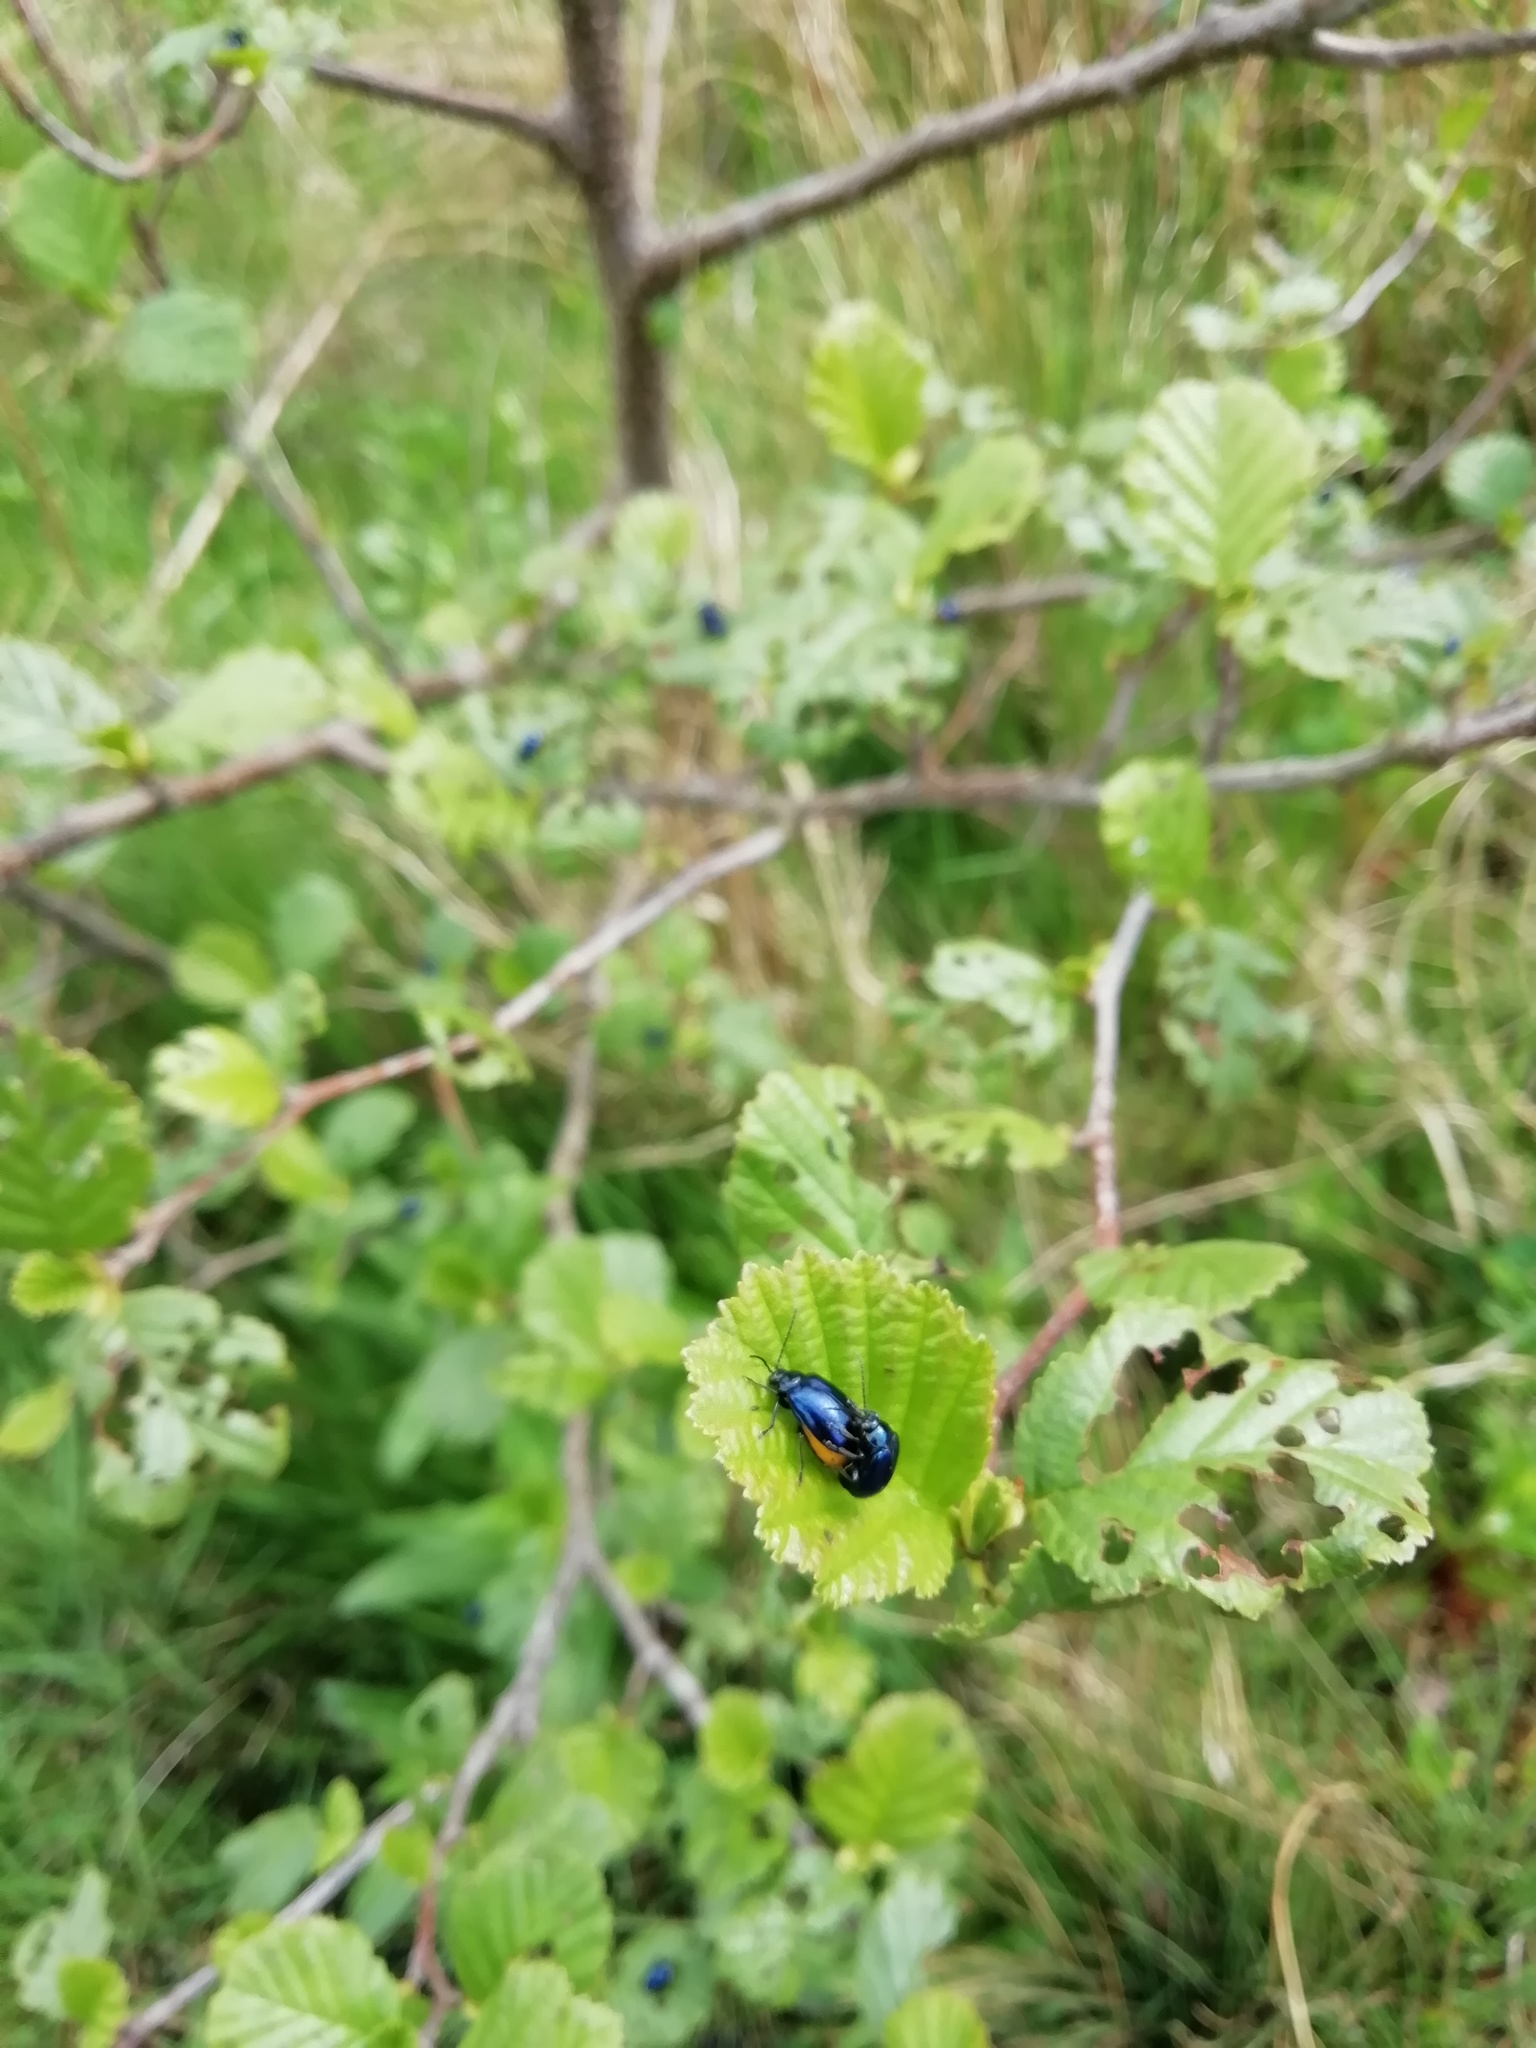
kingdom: Animalia
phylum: Arthropoda
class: Insecta
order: Coleoptera
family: Chrysomelidae
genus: Agelastica
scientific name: Agelastica alni
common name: Alder leaf beetle
